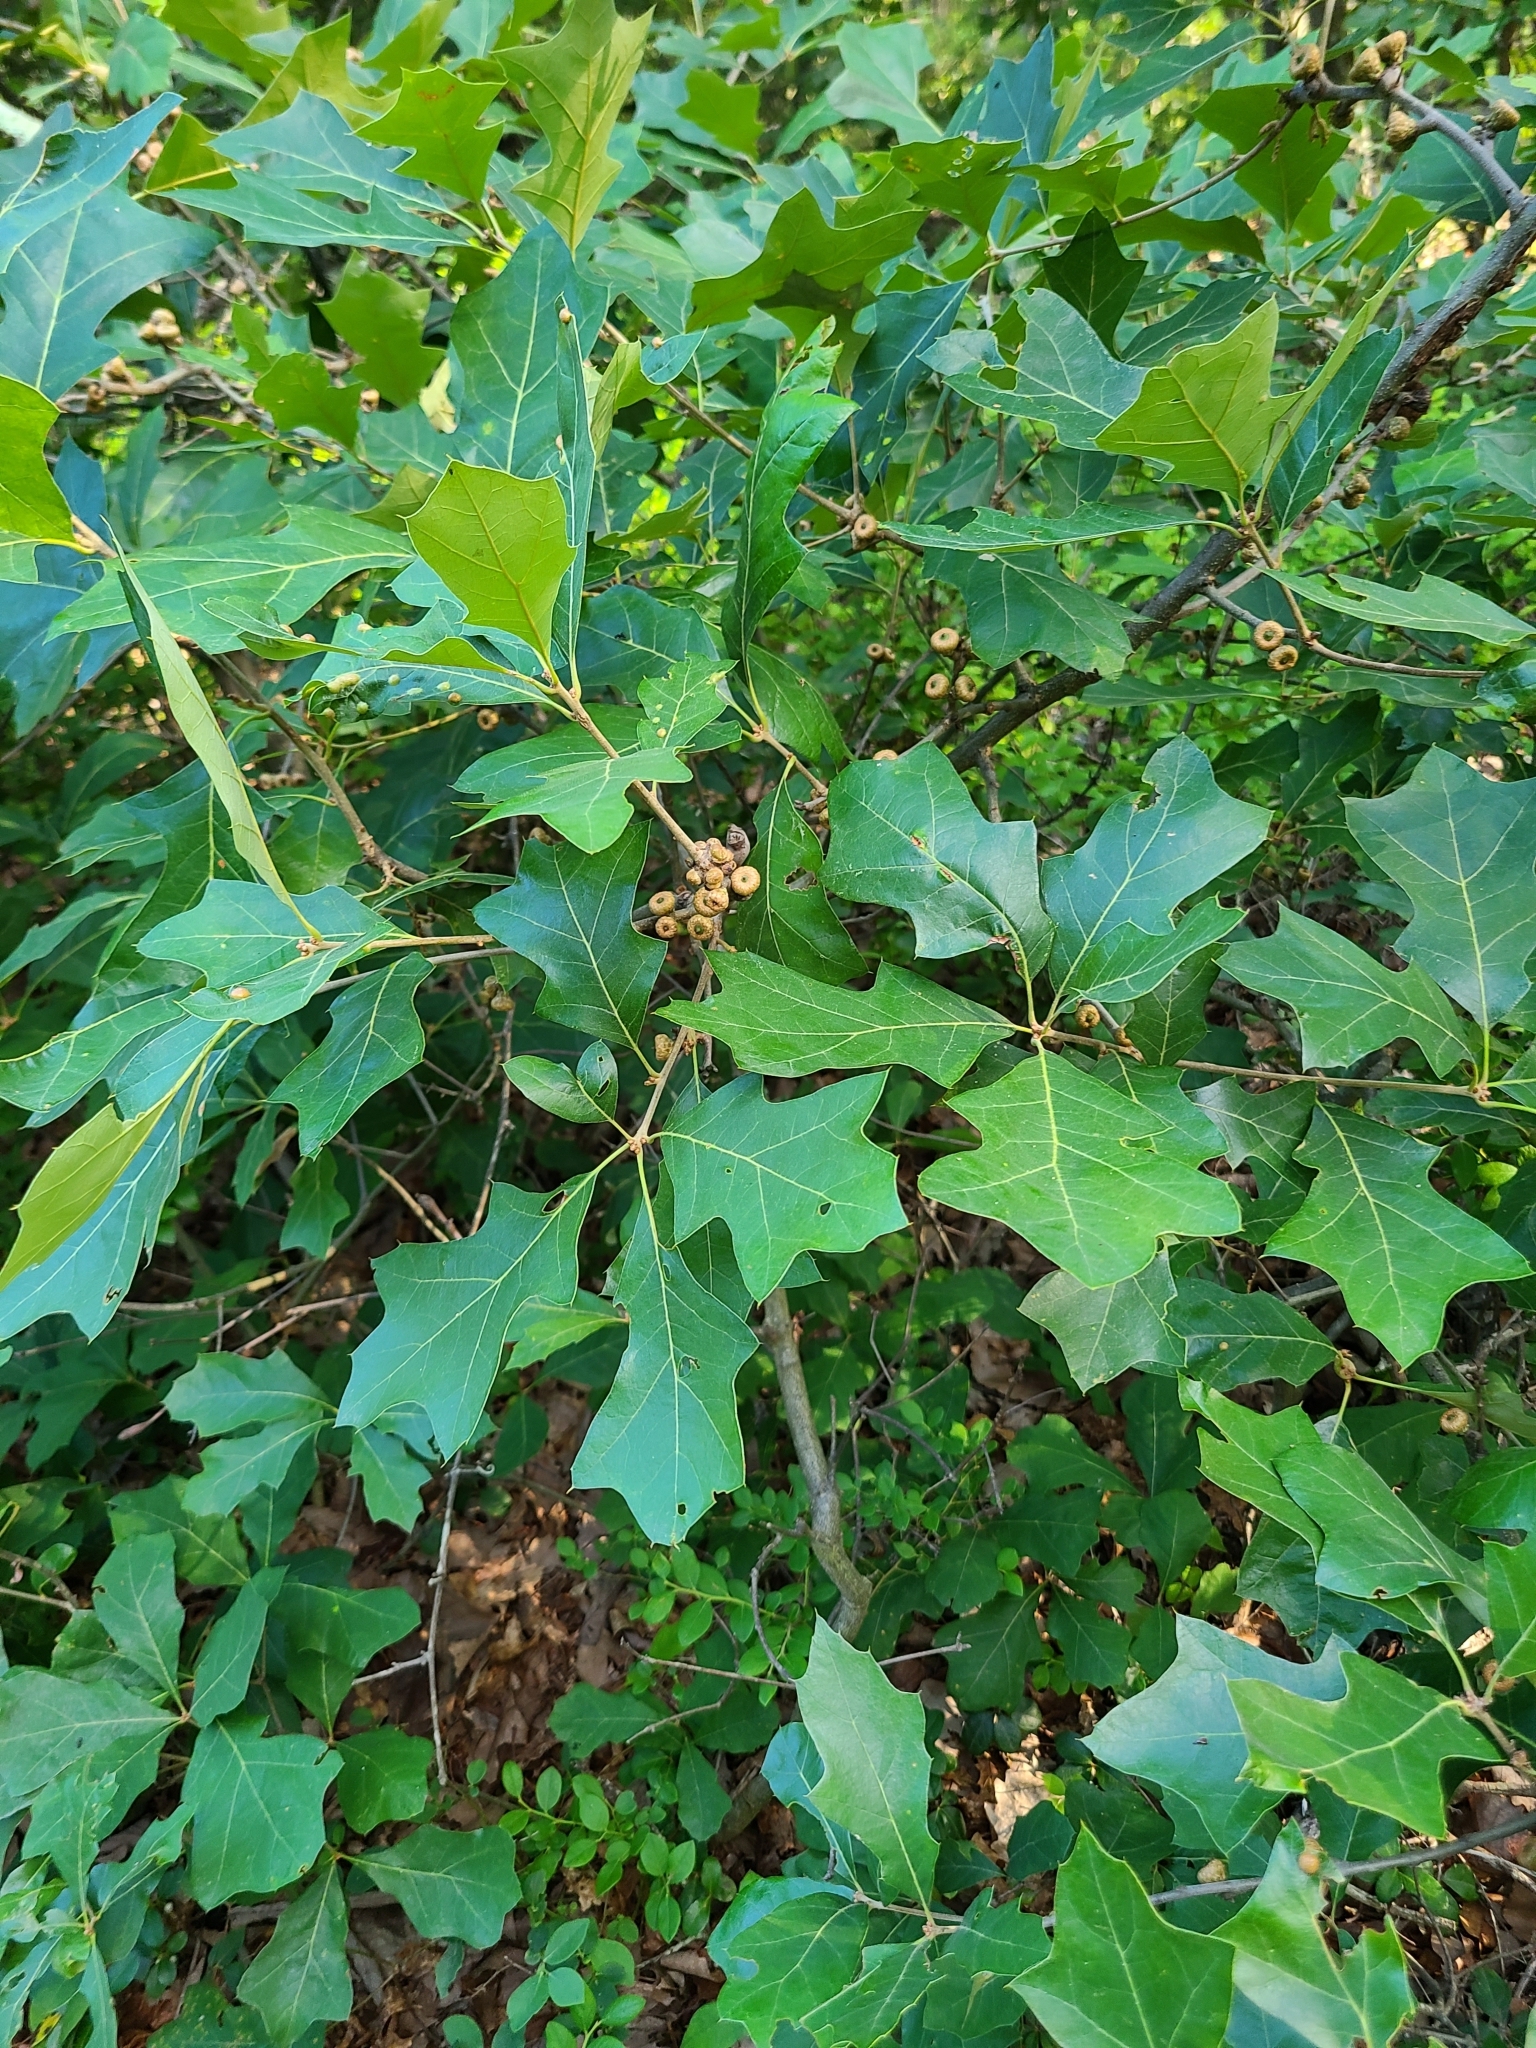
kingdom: Plantae
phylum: Tracheophyta
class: Magnoliopsida
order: Fagales
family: Fagaceae
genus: Quercus
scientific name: Quercus ilicifolia
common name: Bear oak
